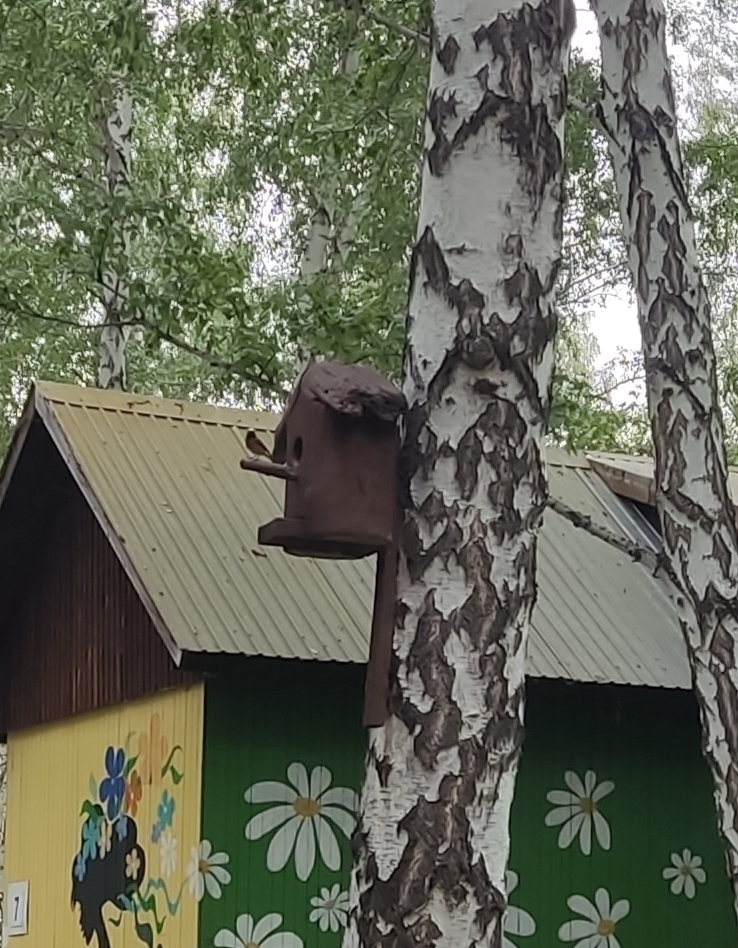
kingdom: Animalia
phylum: Chordata
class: Aves
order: Passeriformes
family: Muscicapidae
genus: Phoenicurus
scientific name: Phoenicurus phoenicurus
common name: Common redstart
